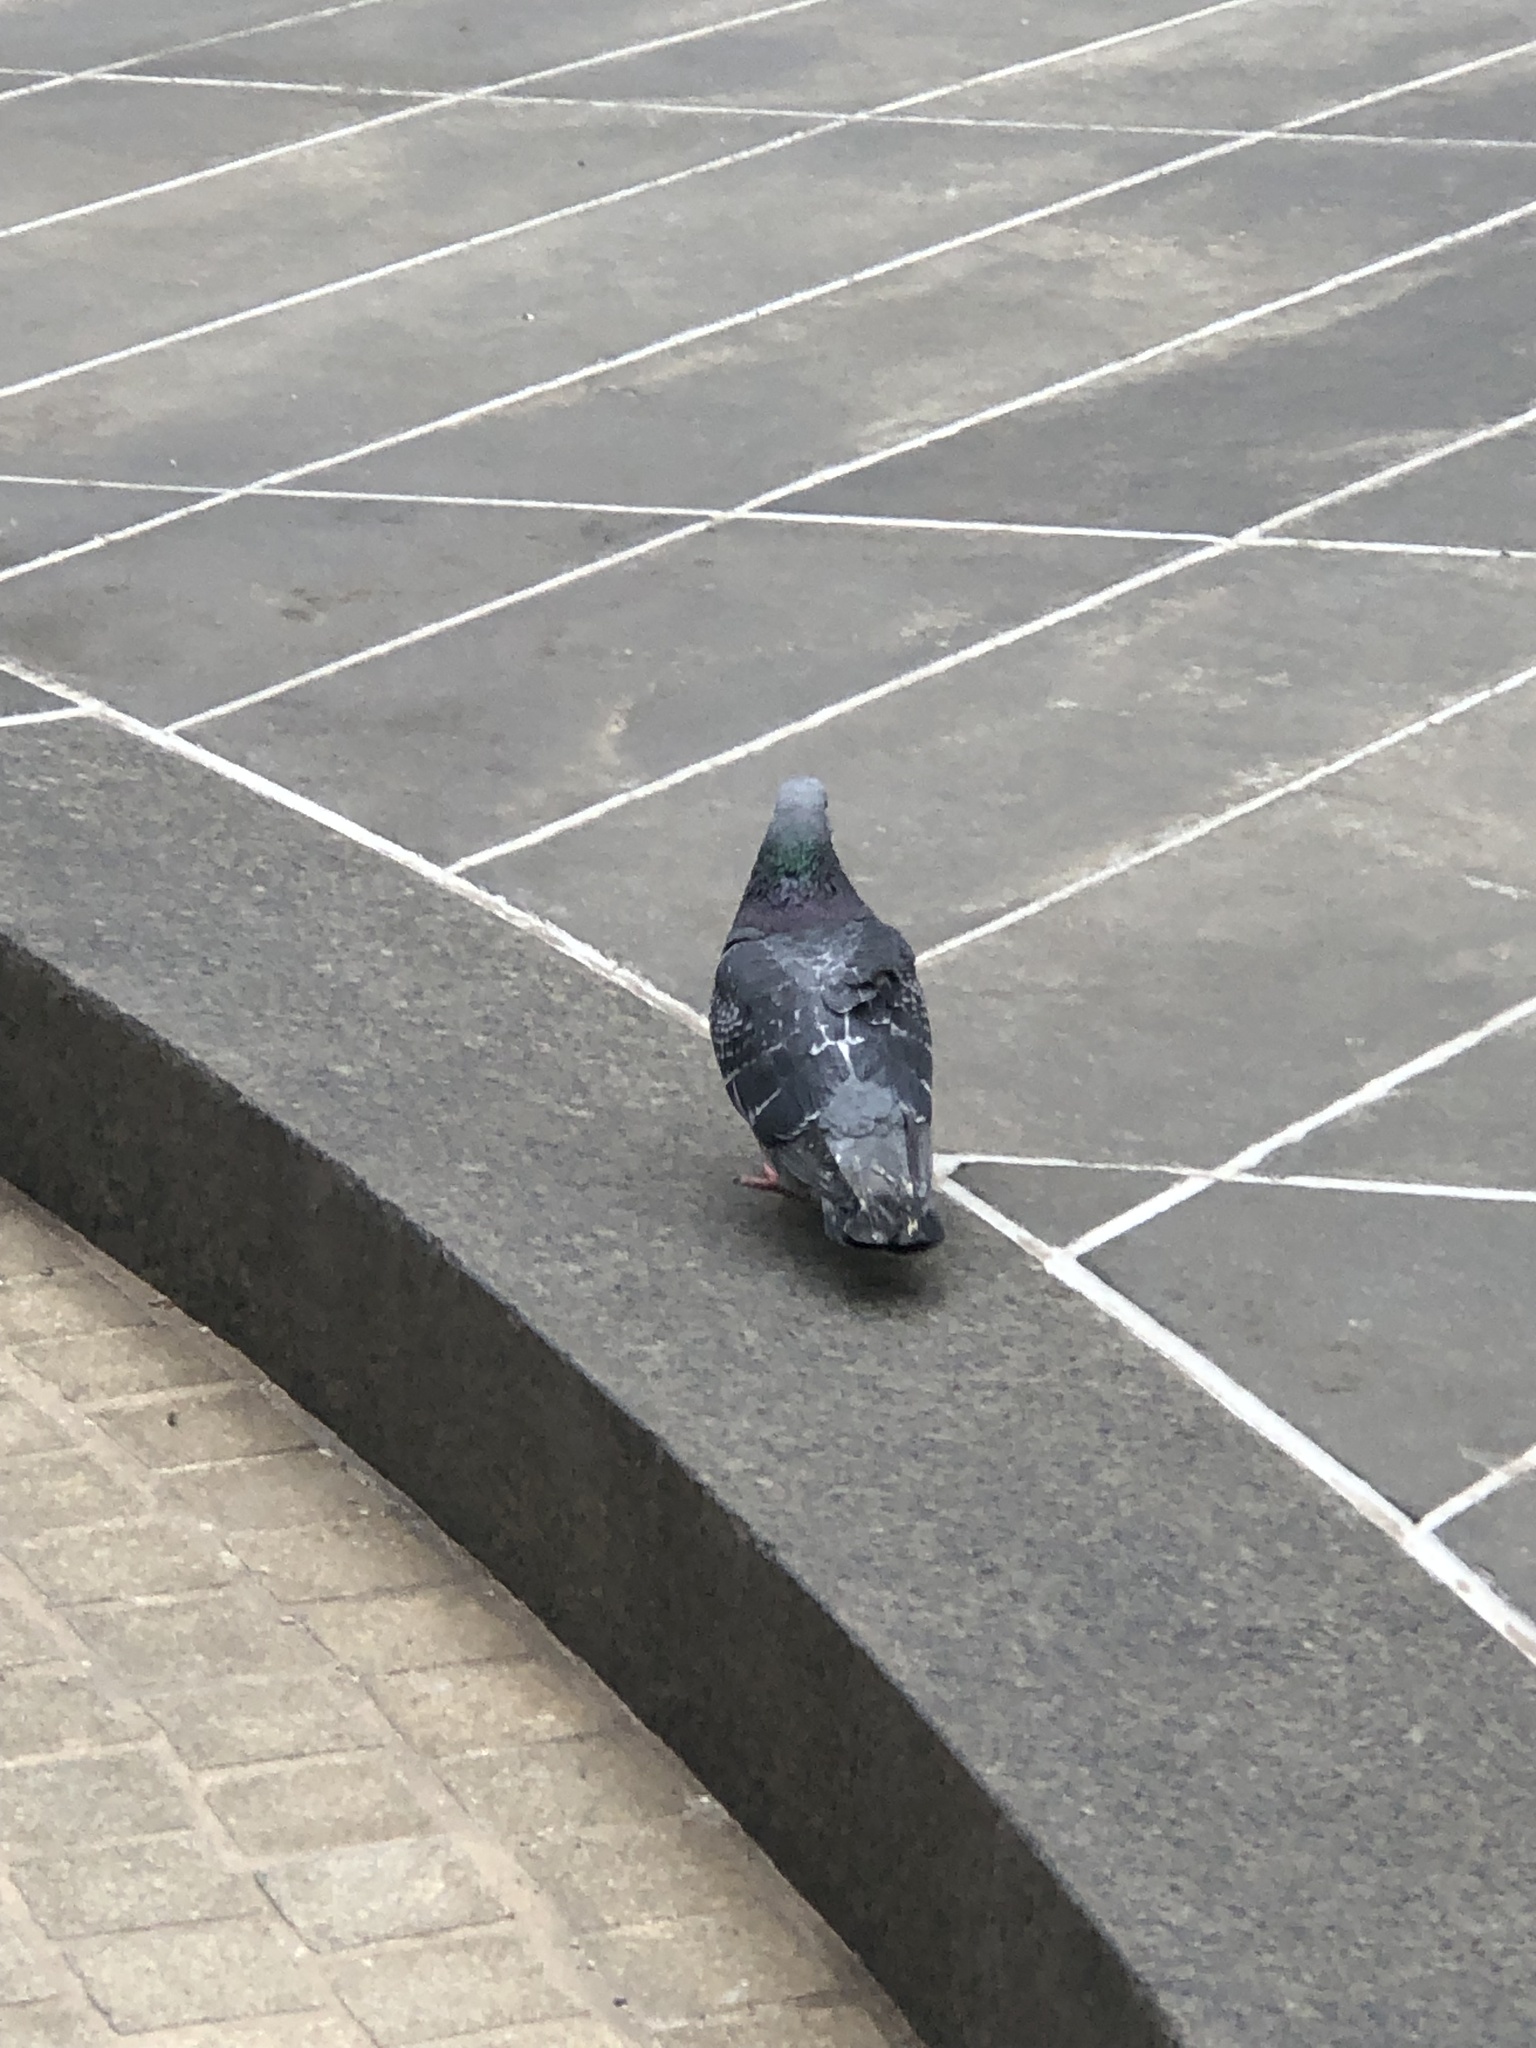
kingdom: Animalia
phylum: Chordata
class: Aves
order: Columbiformes
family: Columbidae
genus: Columba
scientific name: Columba livia
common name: Rock pigeon
